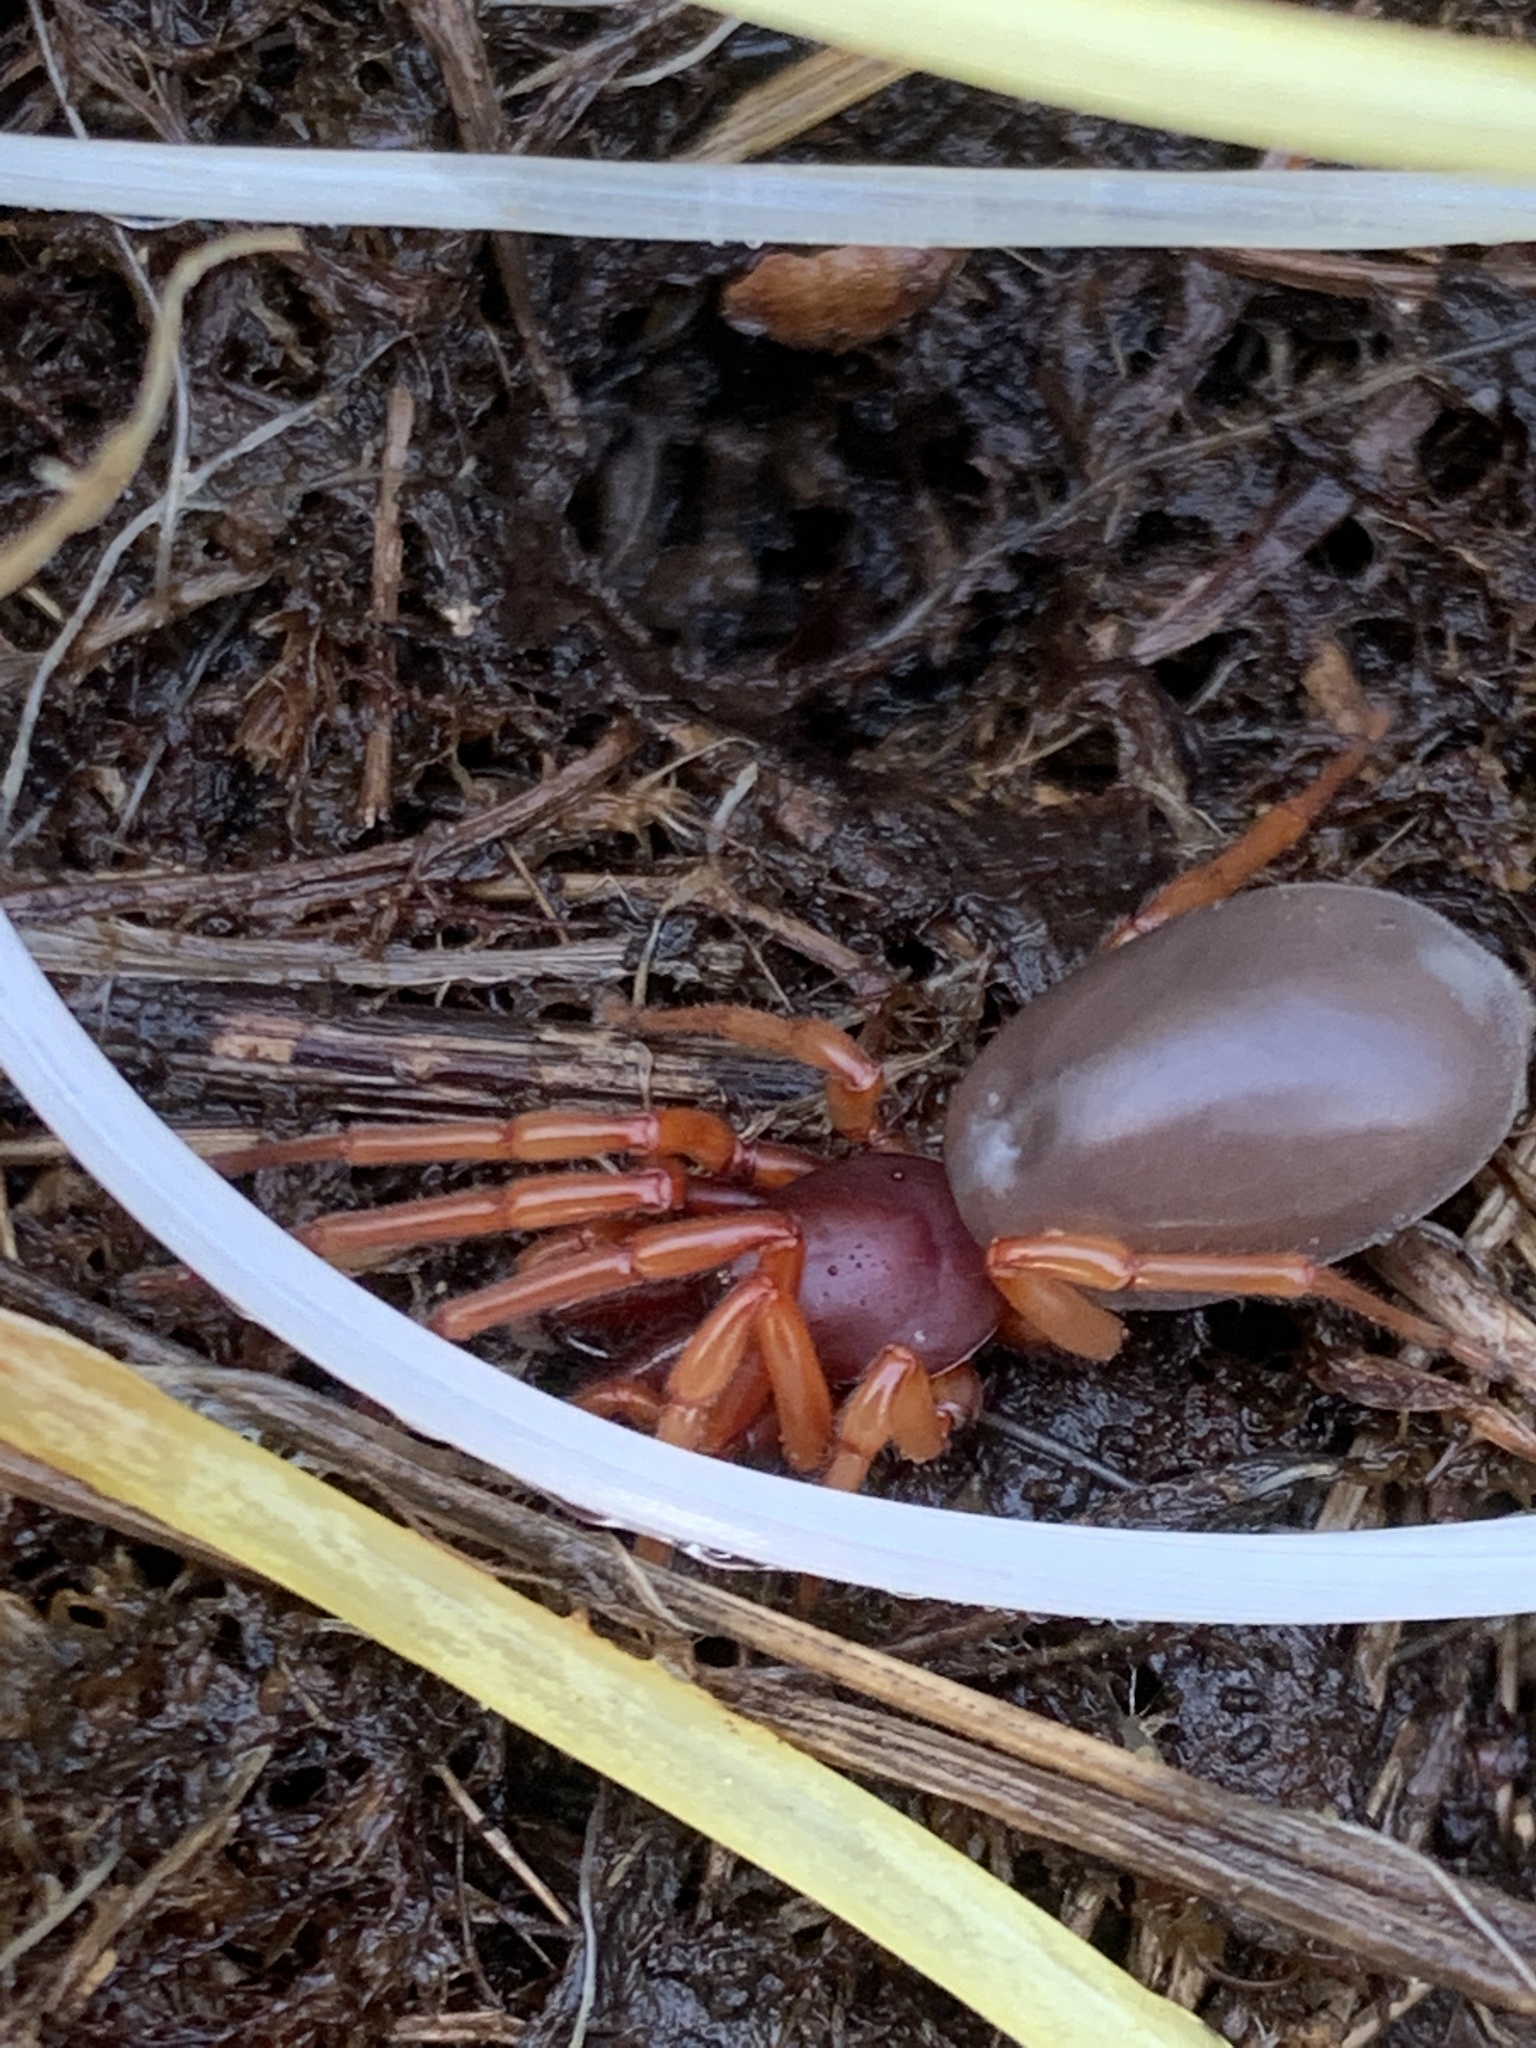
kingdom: Animalia
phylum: Arthropoda
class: Arachnida
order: Araneae
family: Dysderidae
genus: Dysdera
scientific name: Dysdera crocata
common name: Woodlouse spider
